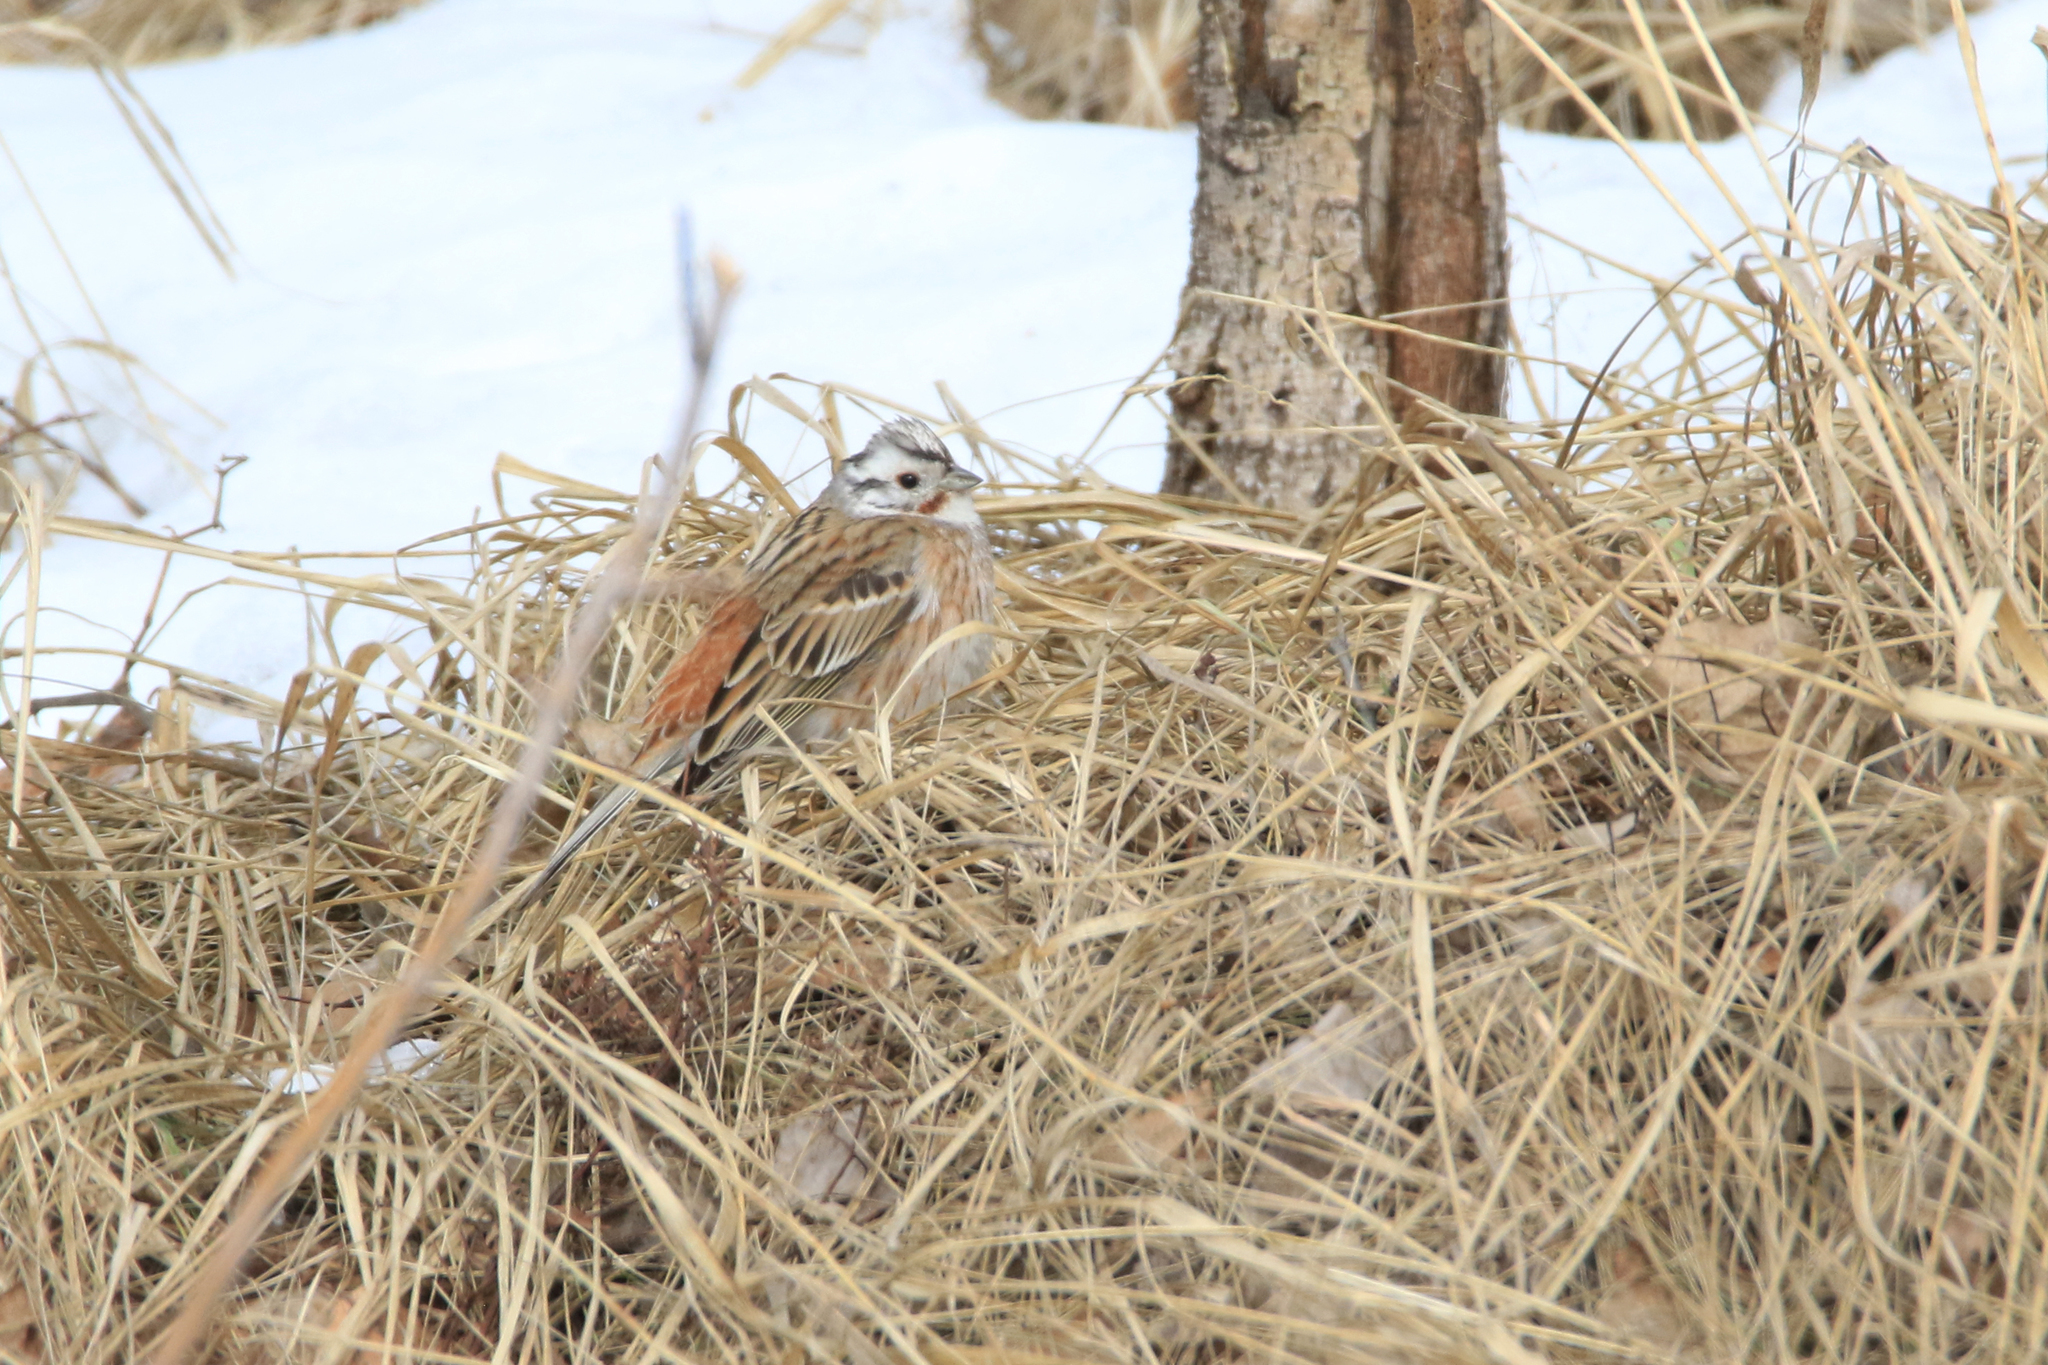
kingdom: Animalia
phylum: Chordata
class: Aves
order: Passeriformes
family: Emberizidae
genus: Emberiza
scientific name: Emberiza
